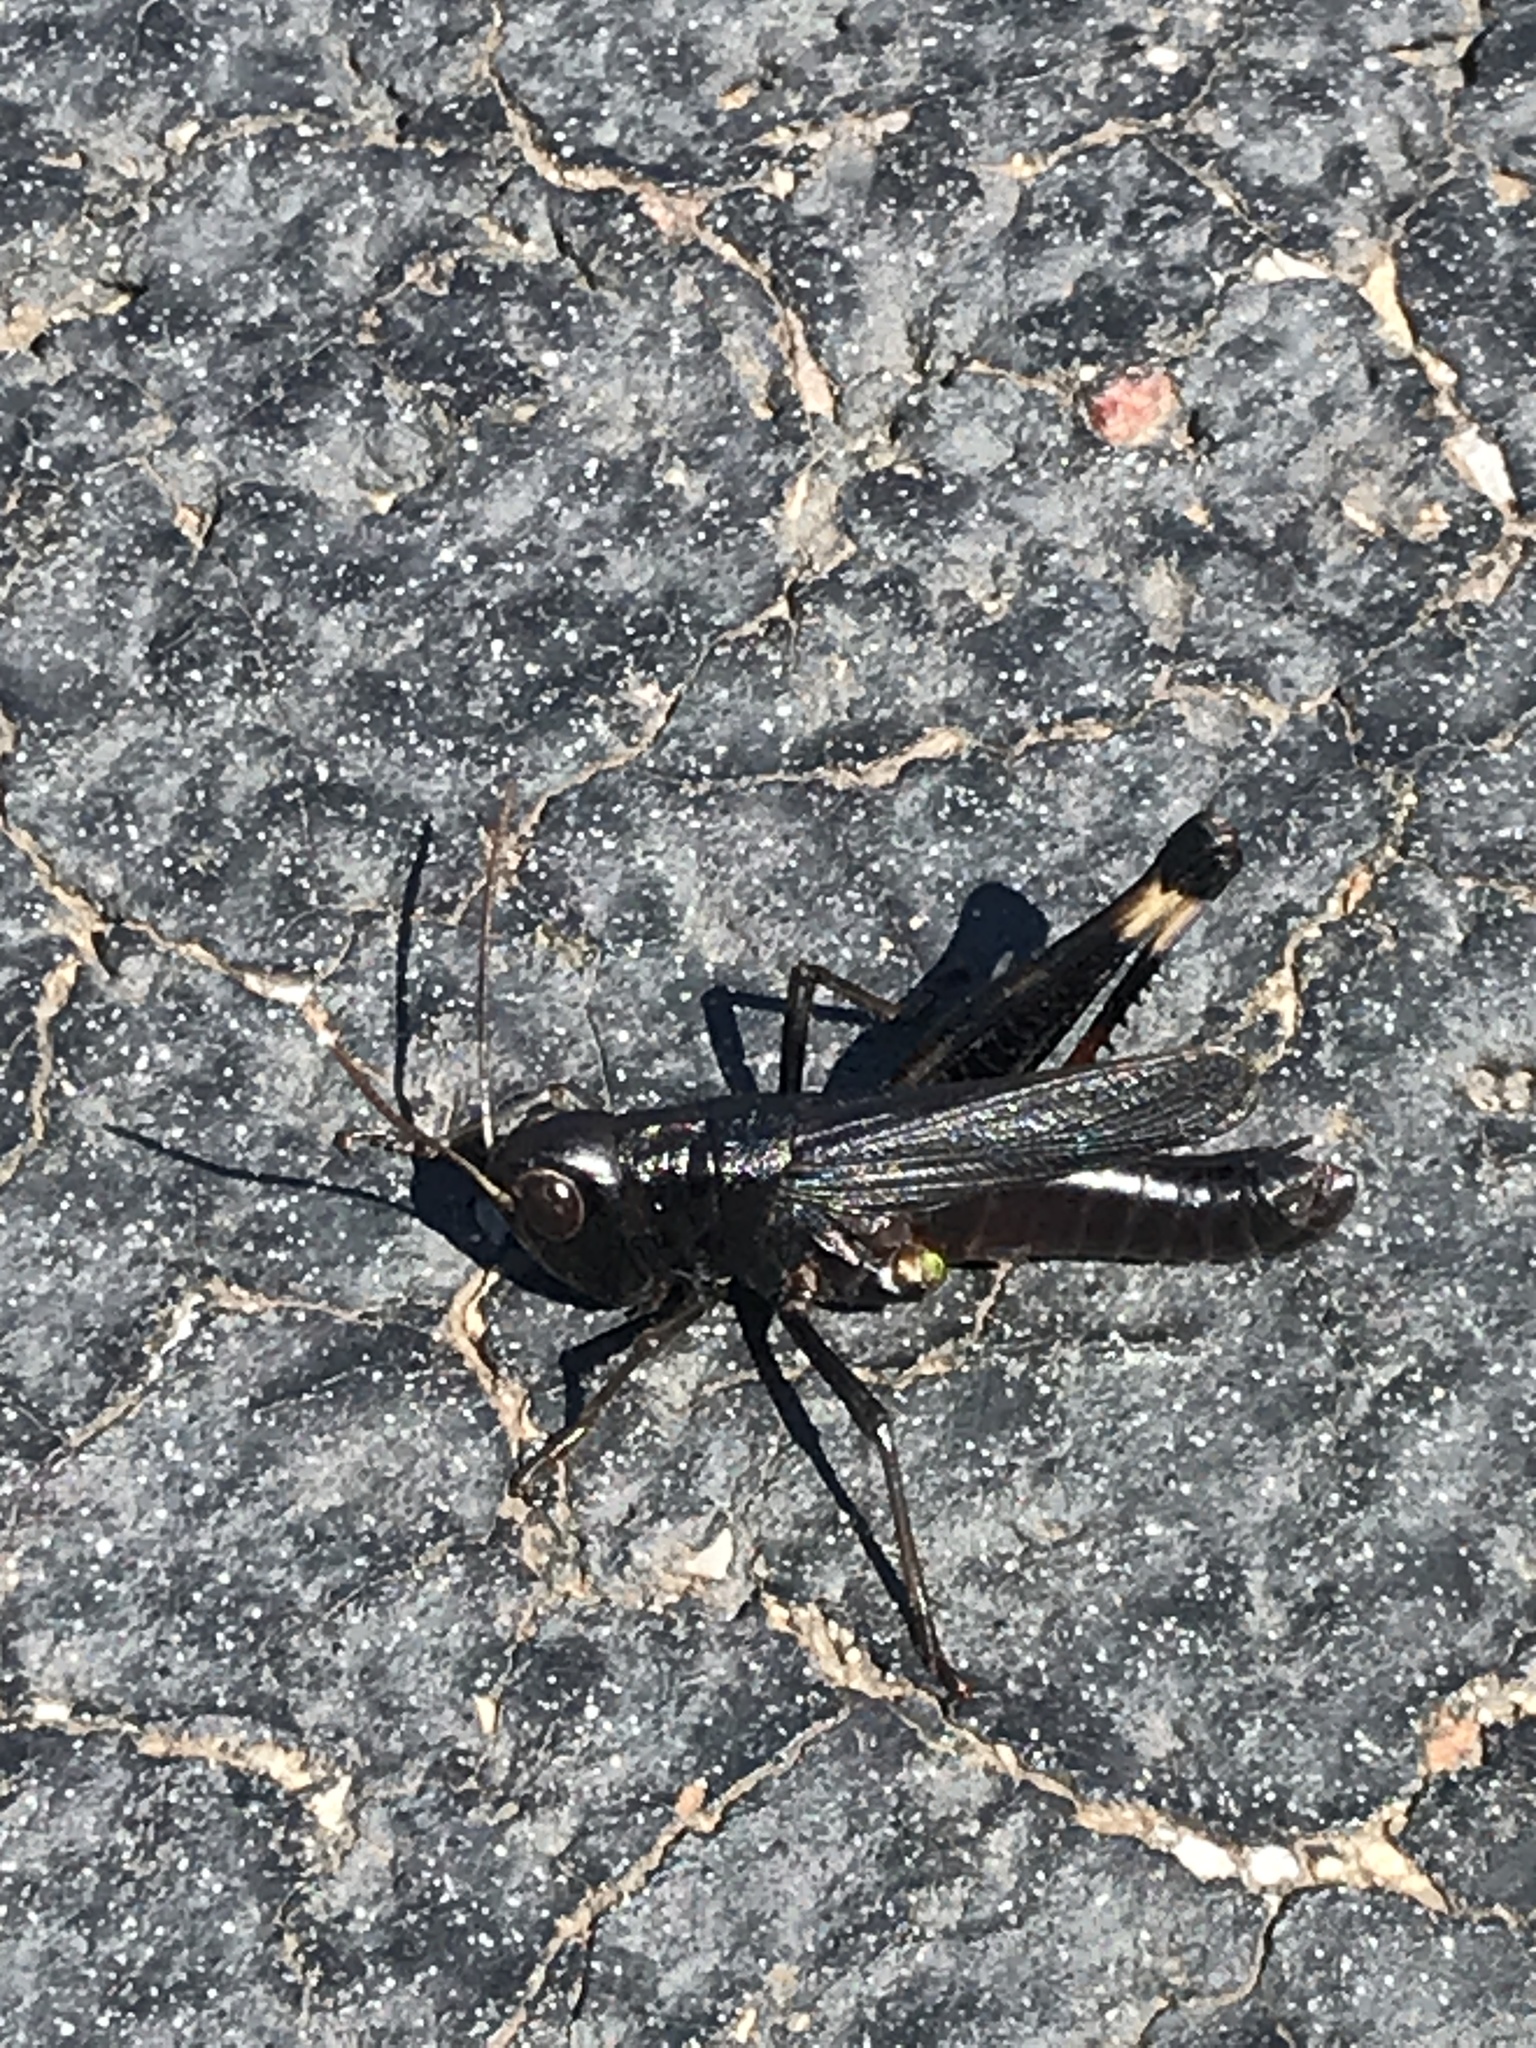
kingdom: Animalia
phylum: Arthropoda
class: Insecta
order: Orthoptera
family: Acrididae
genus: Boopedon
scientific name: Boopedon nubilum
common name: Ebony grasshopper
